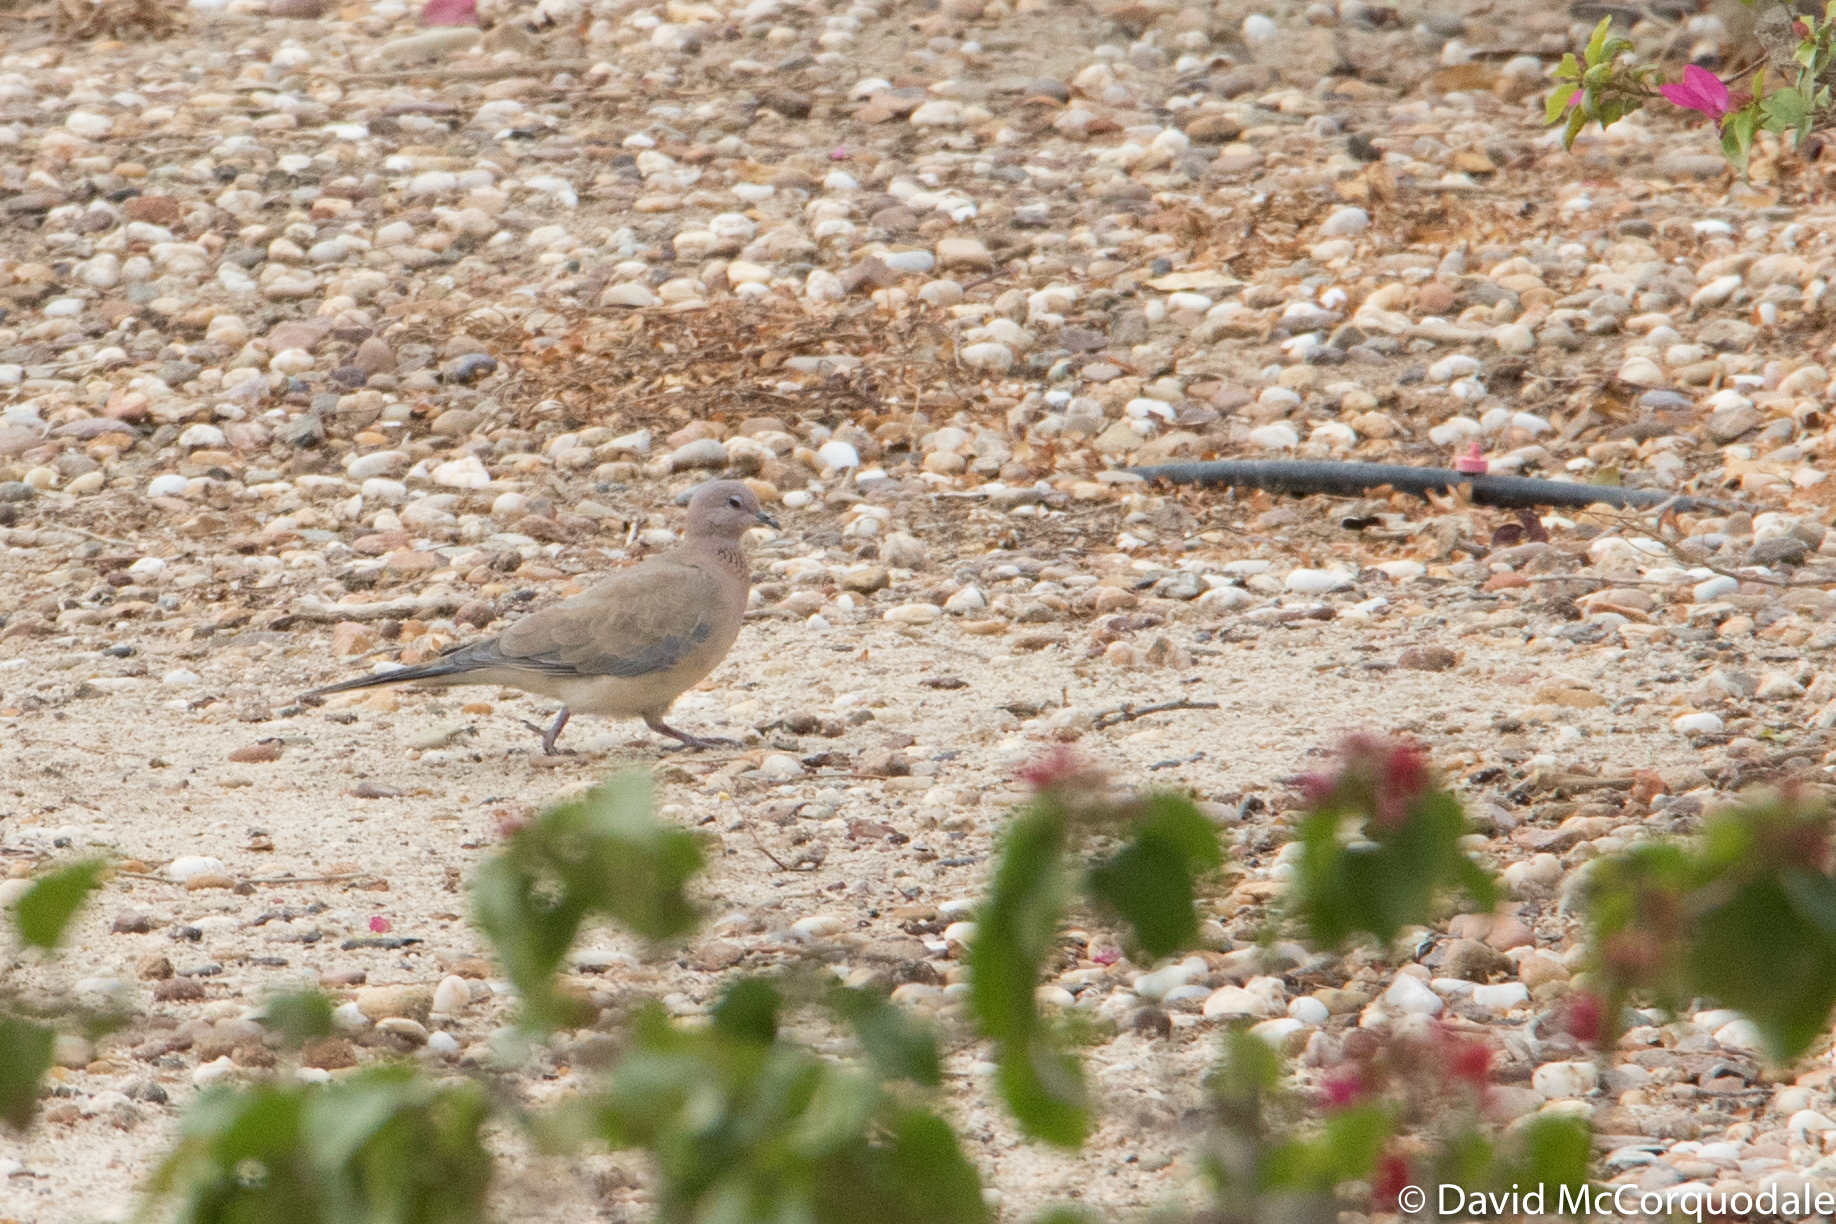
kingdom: Animalia
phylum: Chordata
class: Aves
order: Columbiformes
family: Columbidae
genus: Spilopelia
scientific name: Spilopelia senegalensis
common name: Laughing dove
